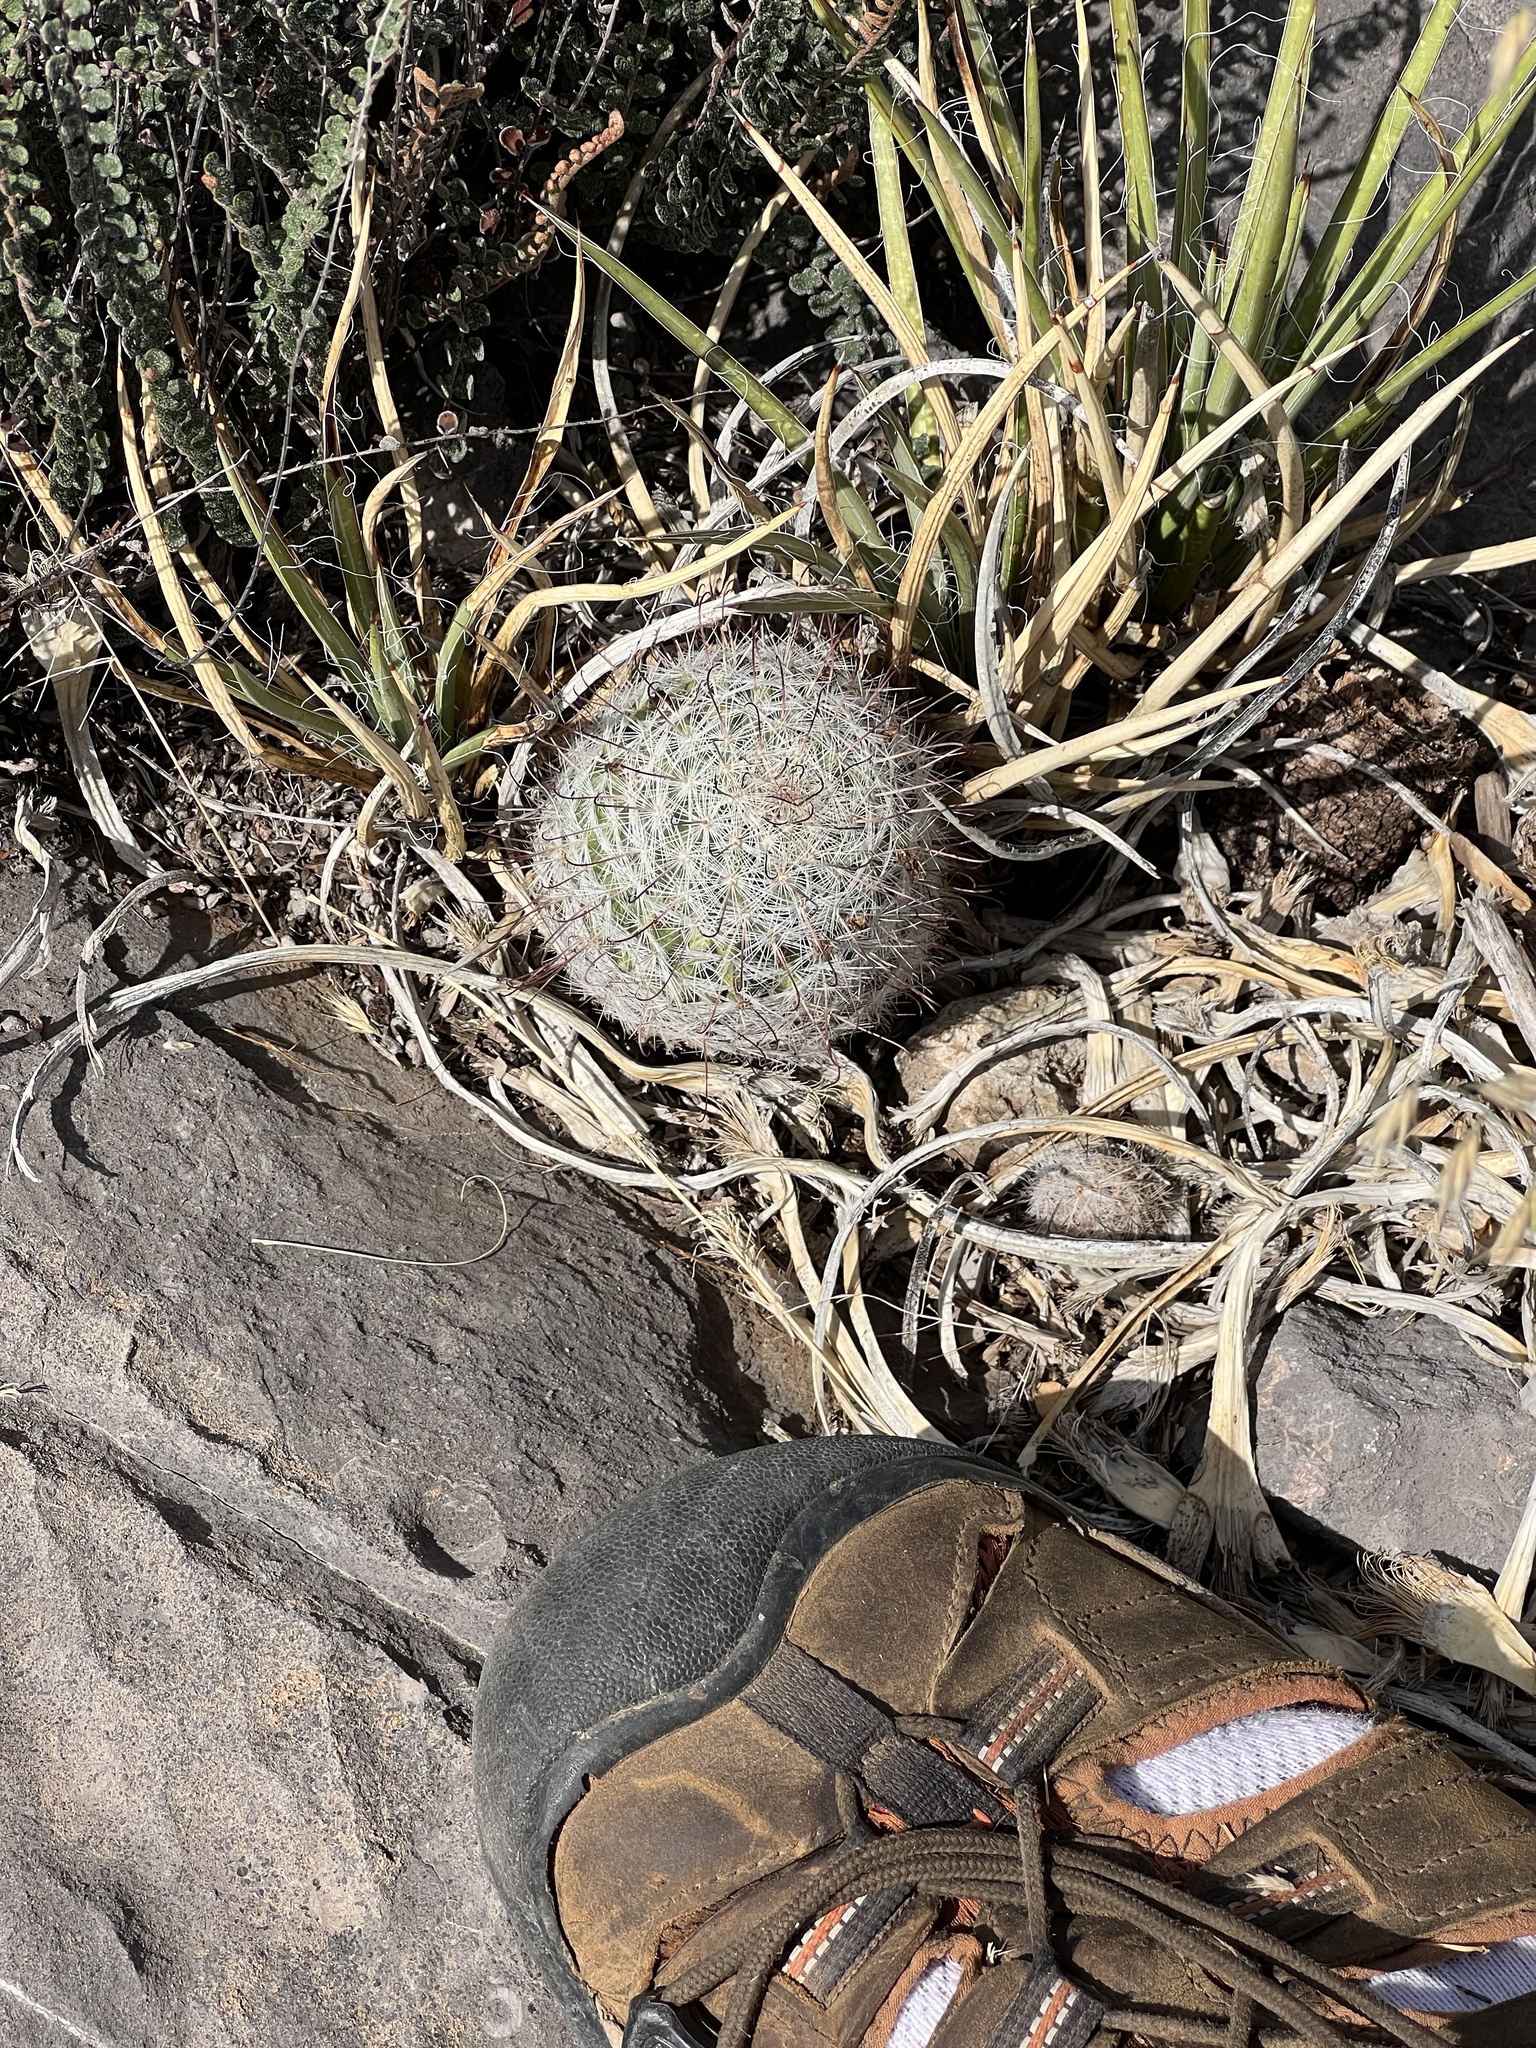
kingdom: Plantae
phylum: Tracheophyta
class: Magnoliopsida
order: Caryophyllales
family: Cactaceae
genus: Cochemiea
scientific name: Cochemiea grahamii
